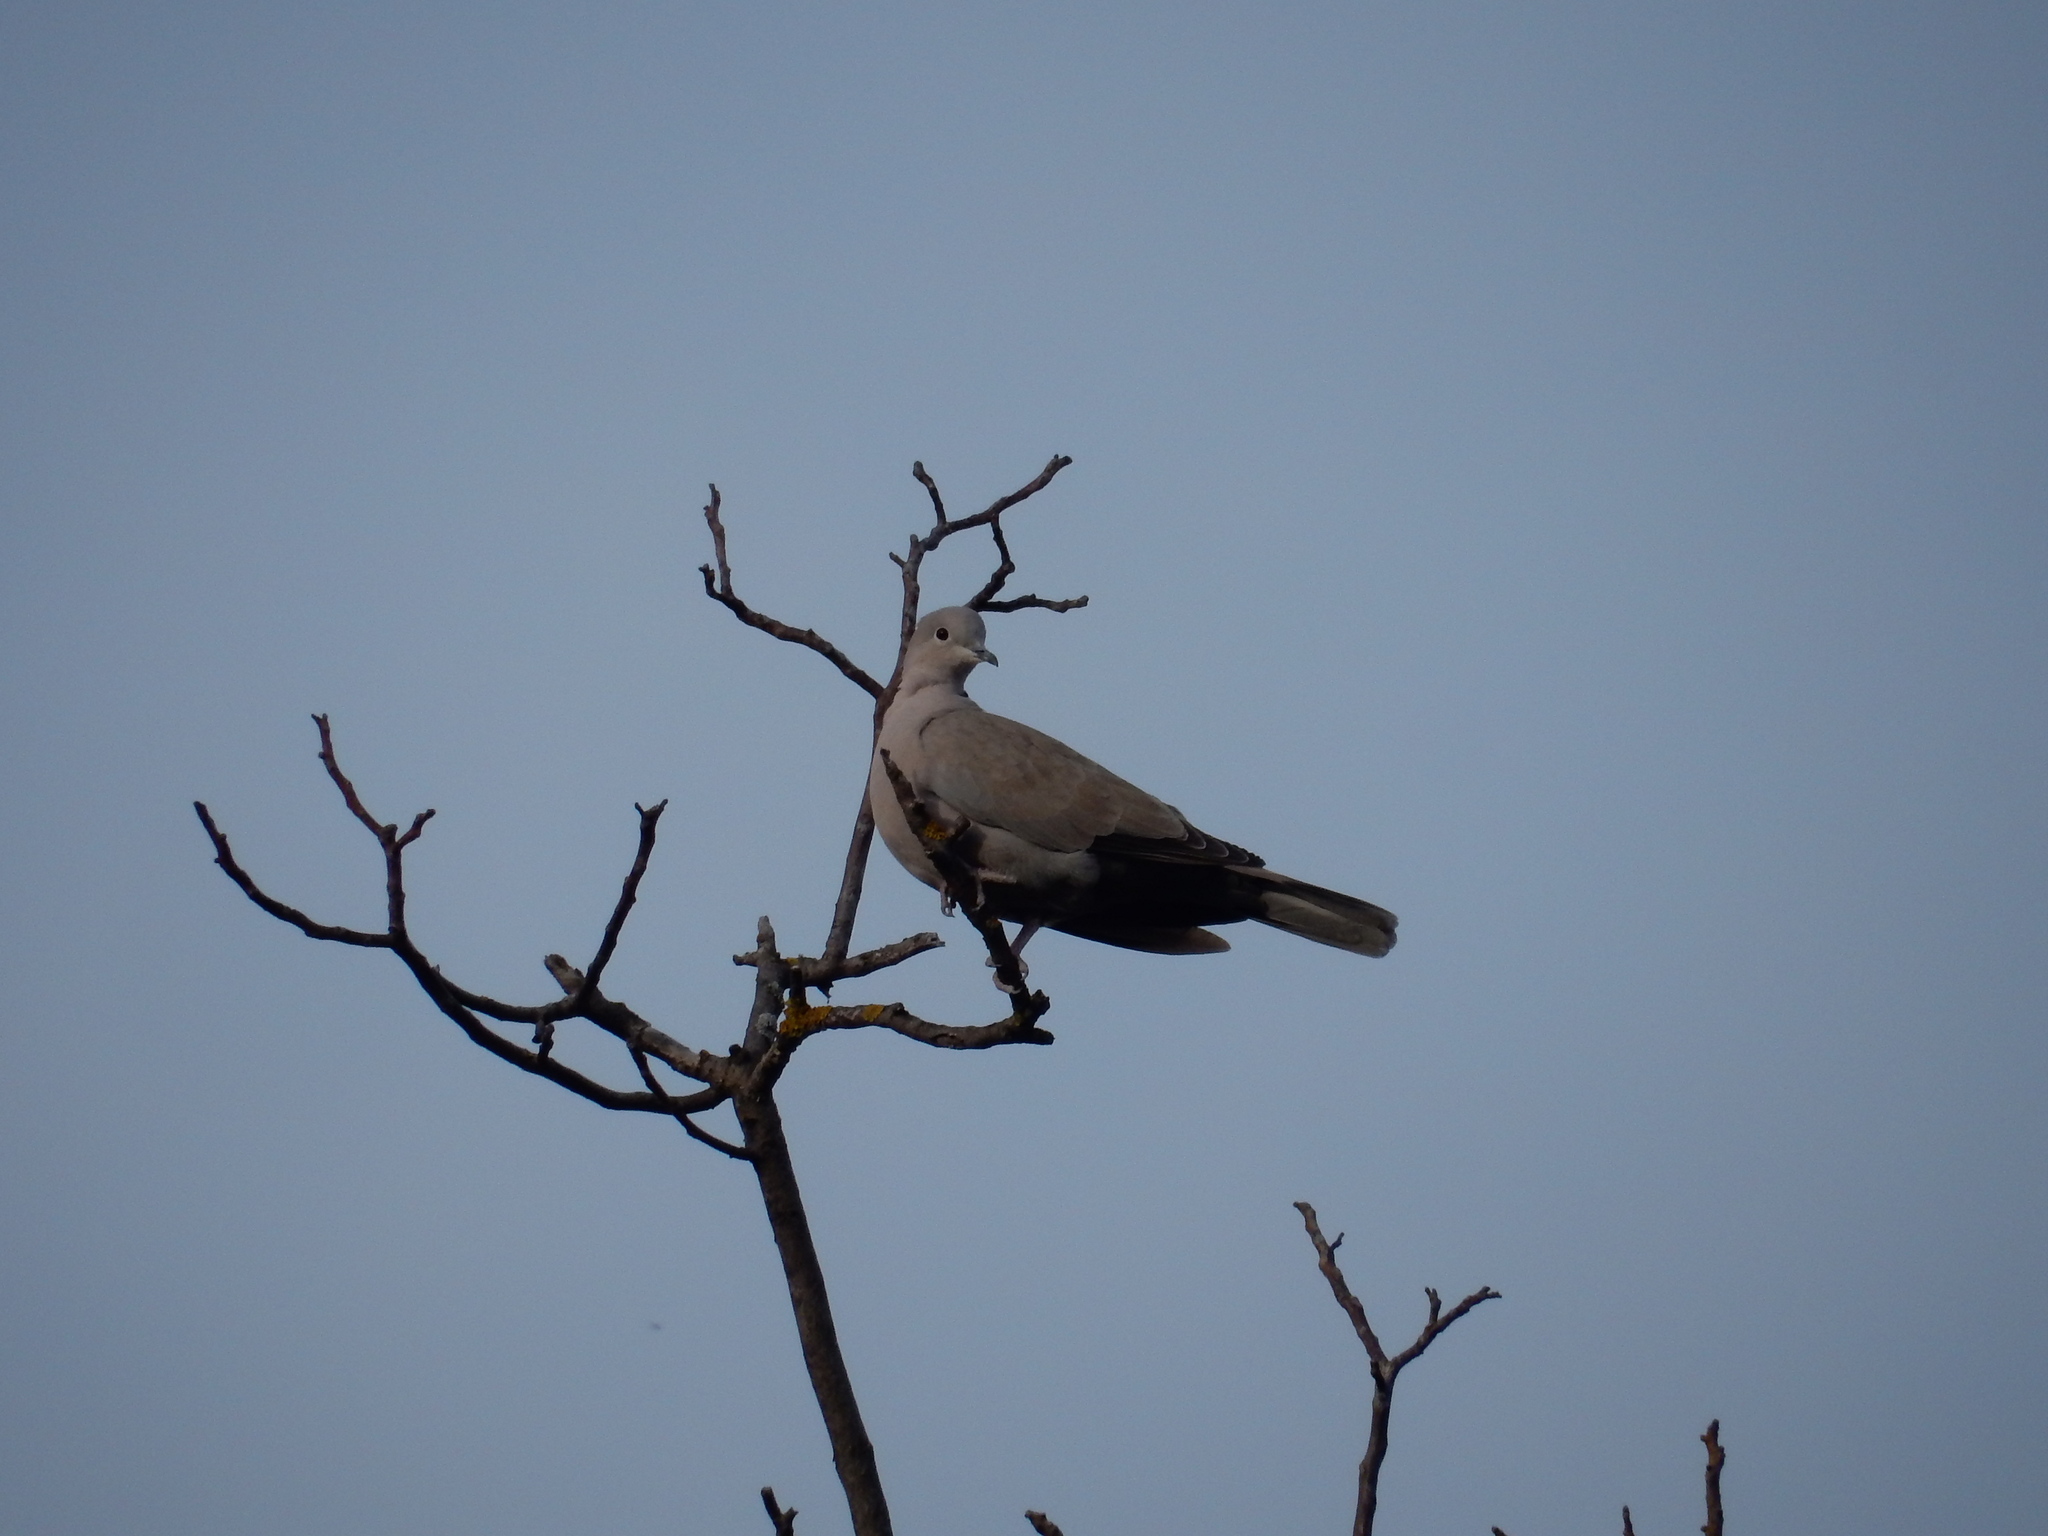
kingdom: Animalia
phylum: Chordata
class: Aves
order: Columbiformes
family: Columbidae
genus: Streptopelia
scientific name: Streptopelia decaocto
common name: Eurasian collared dove
